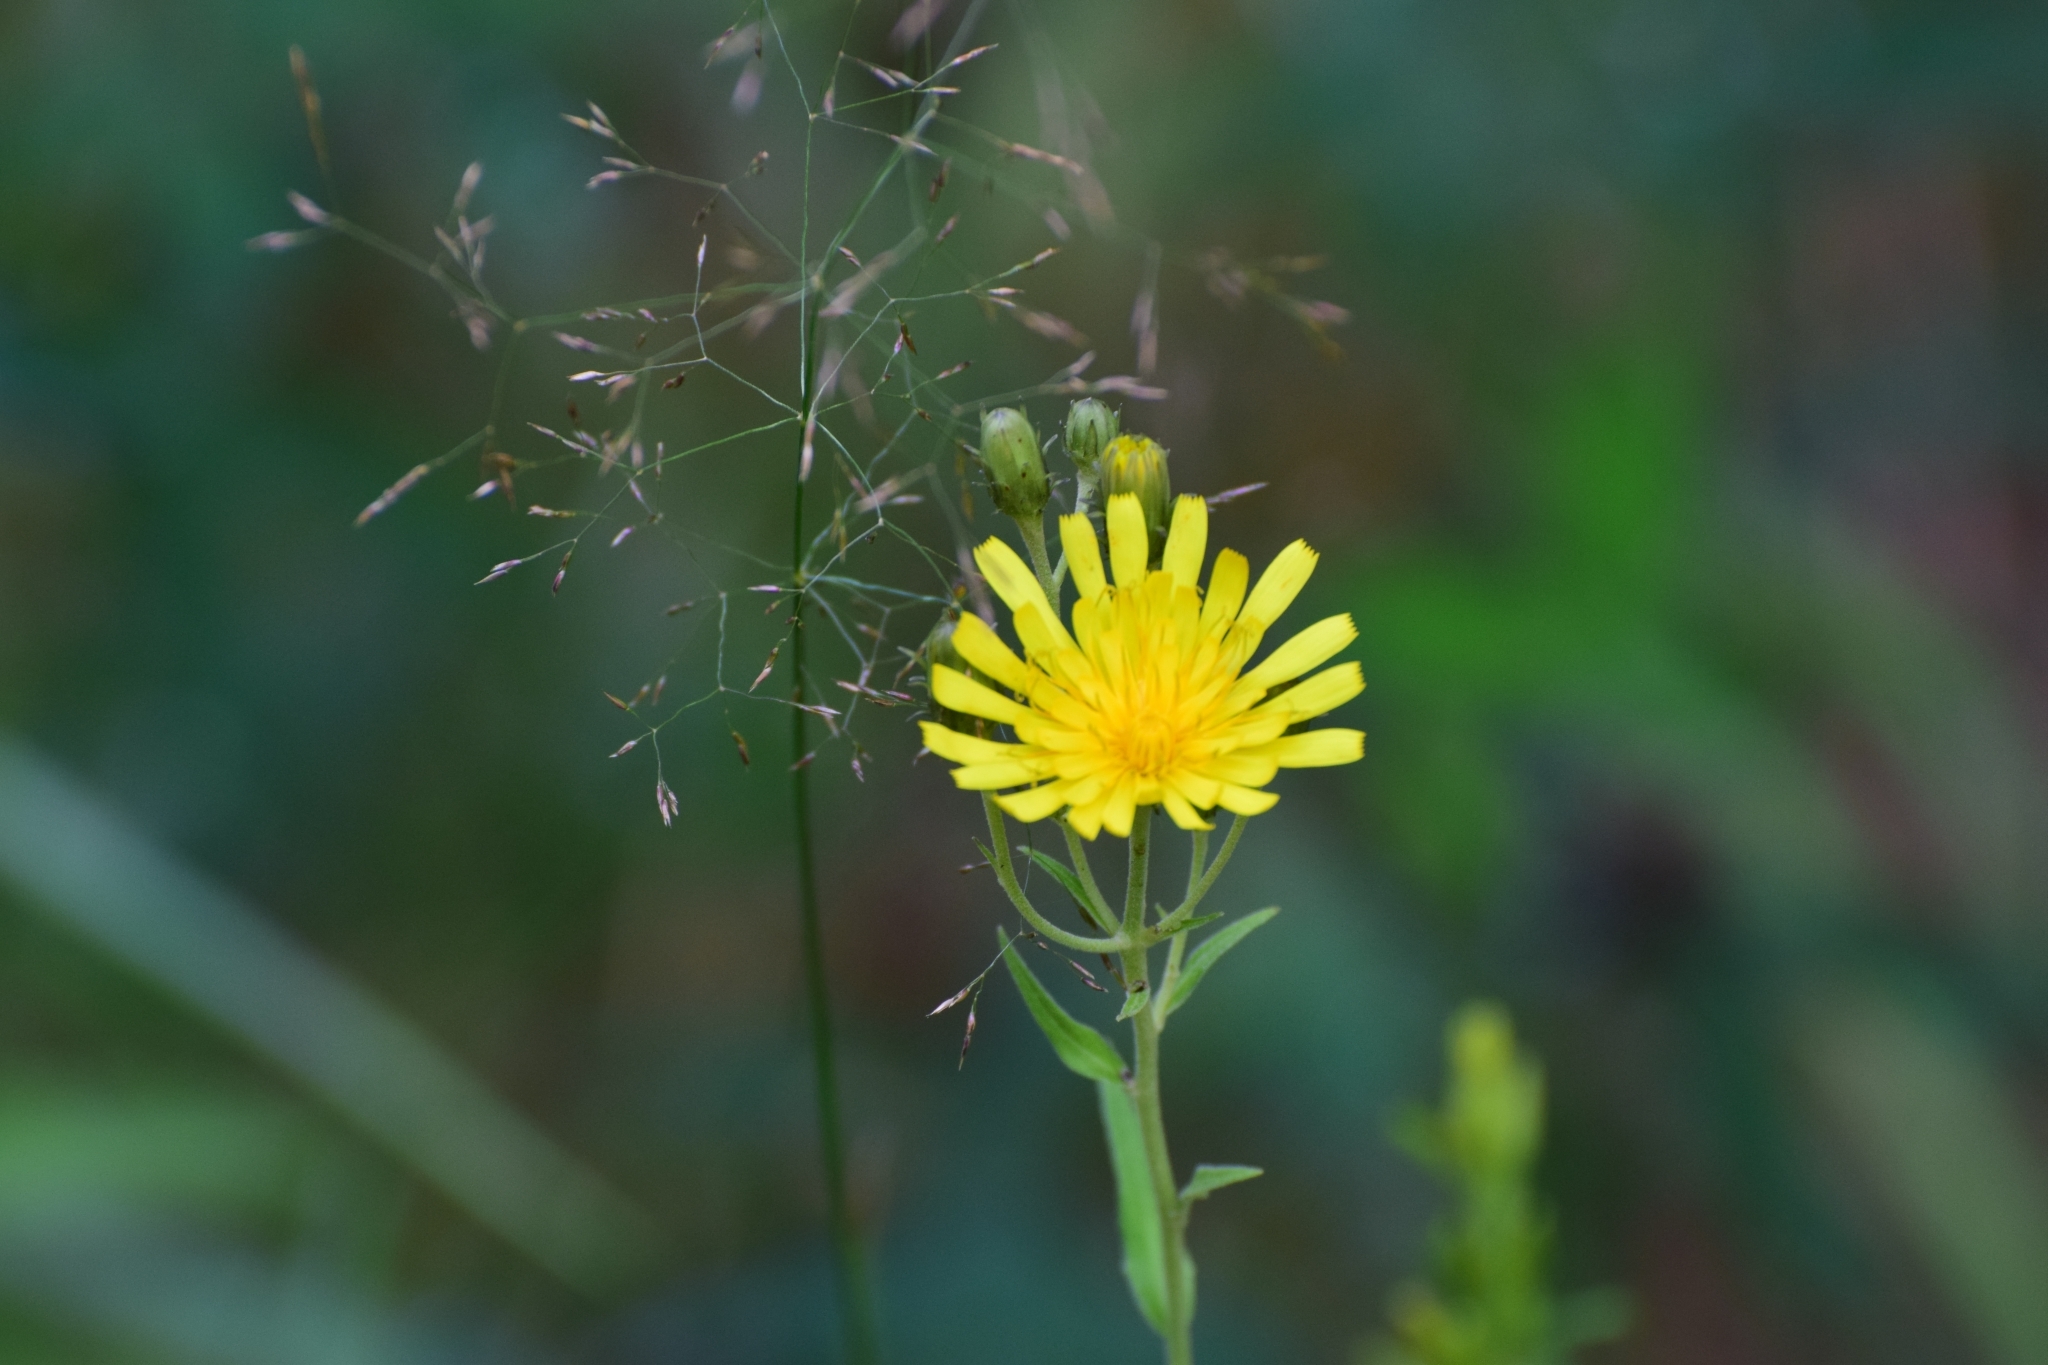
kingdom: Plantae
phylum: Tracheophyta
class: Magnoliopsida
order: Asterales
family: Asteraceae
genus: Hieracium
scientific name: Hieracium umbellatum
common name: Northern hawkweed
